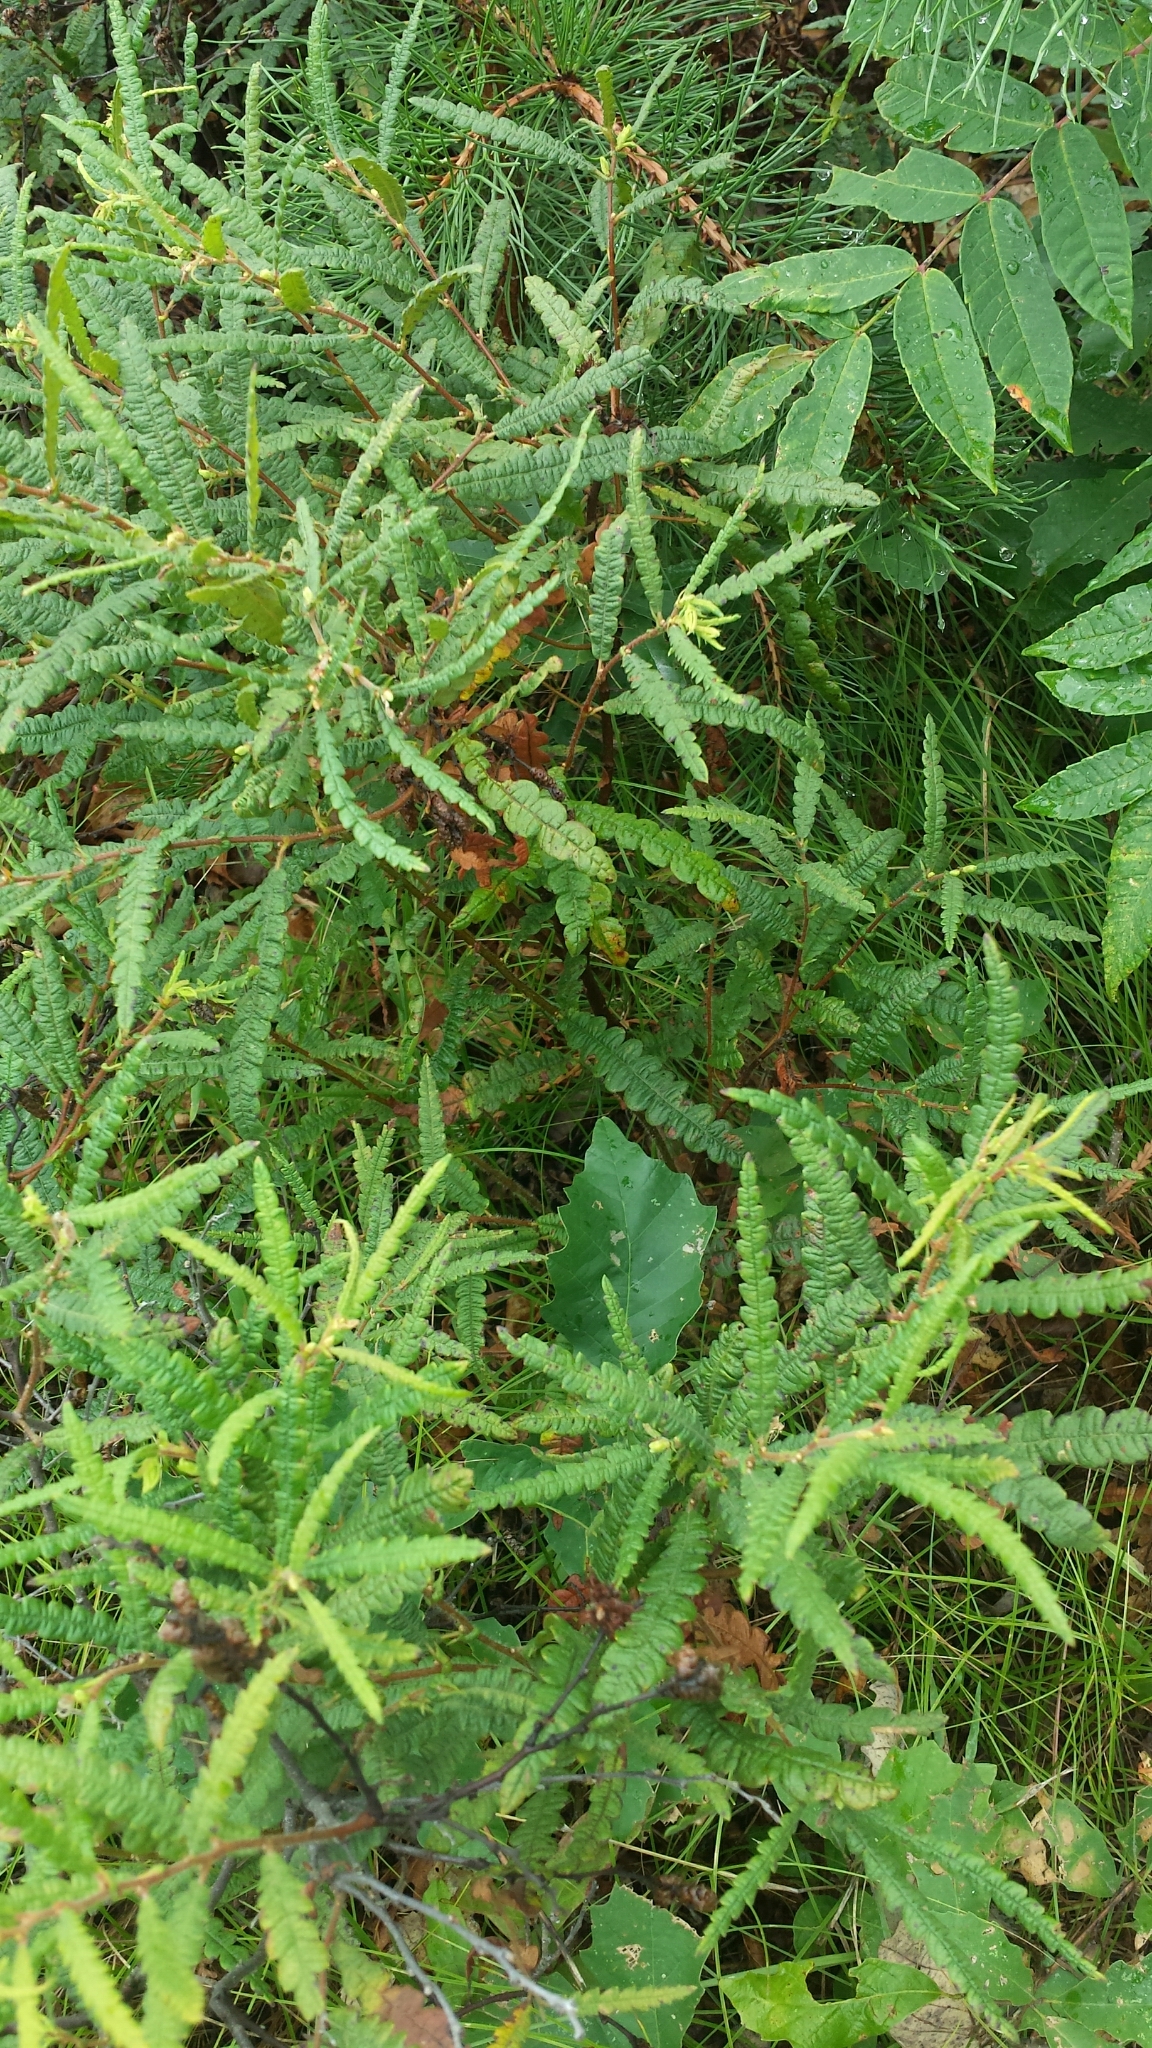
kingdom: Plantae
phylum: Tracheophyta
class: Magnoliopsida
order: Fagales
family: Myricaceae
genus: Comptonia
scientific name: Comptonia peregrina
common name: Sweet-fern
